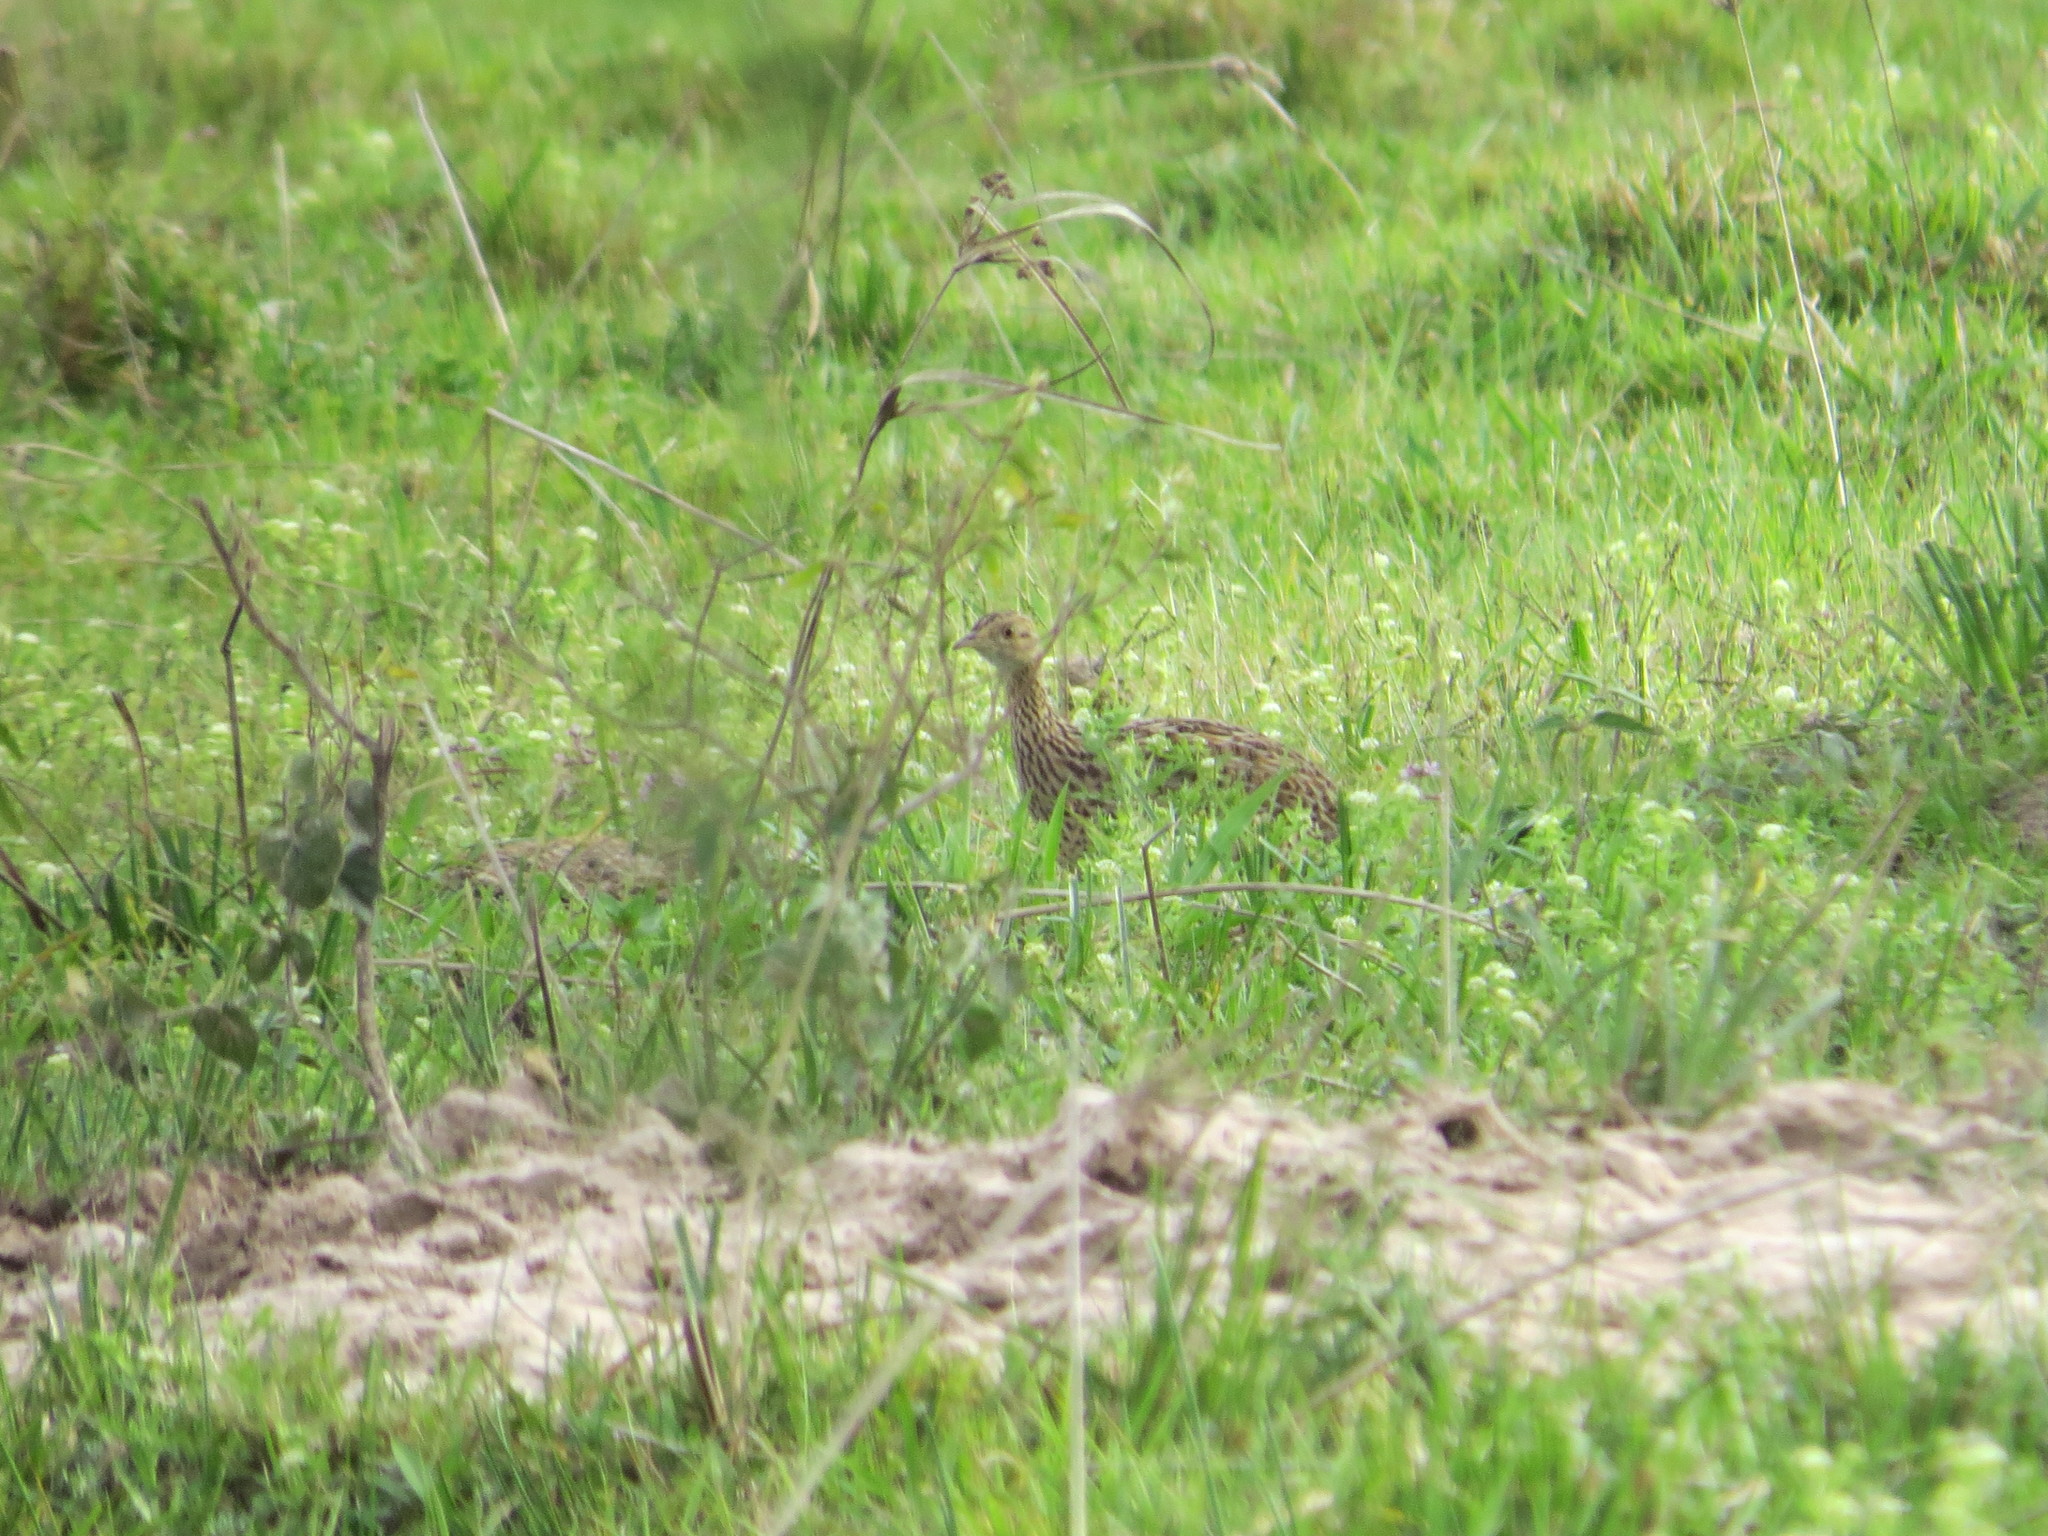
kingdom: Animalia
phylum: Chordata
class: Aves
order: Tinamiformes
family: Tinamidae
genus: Nothura
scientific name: Nothura maculosa
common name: Spotted nothura
